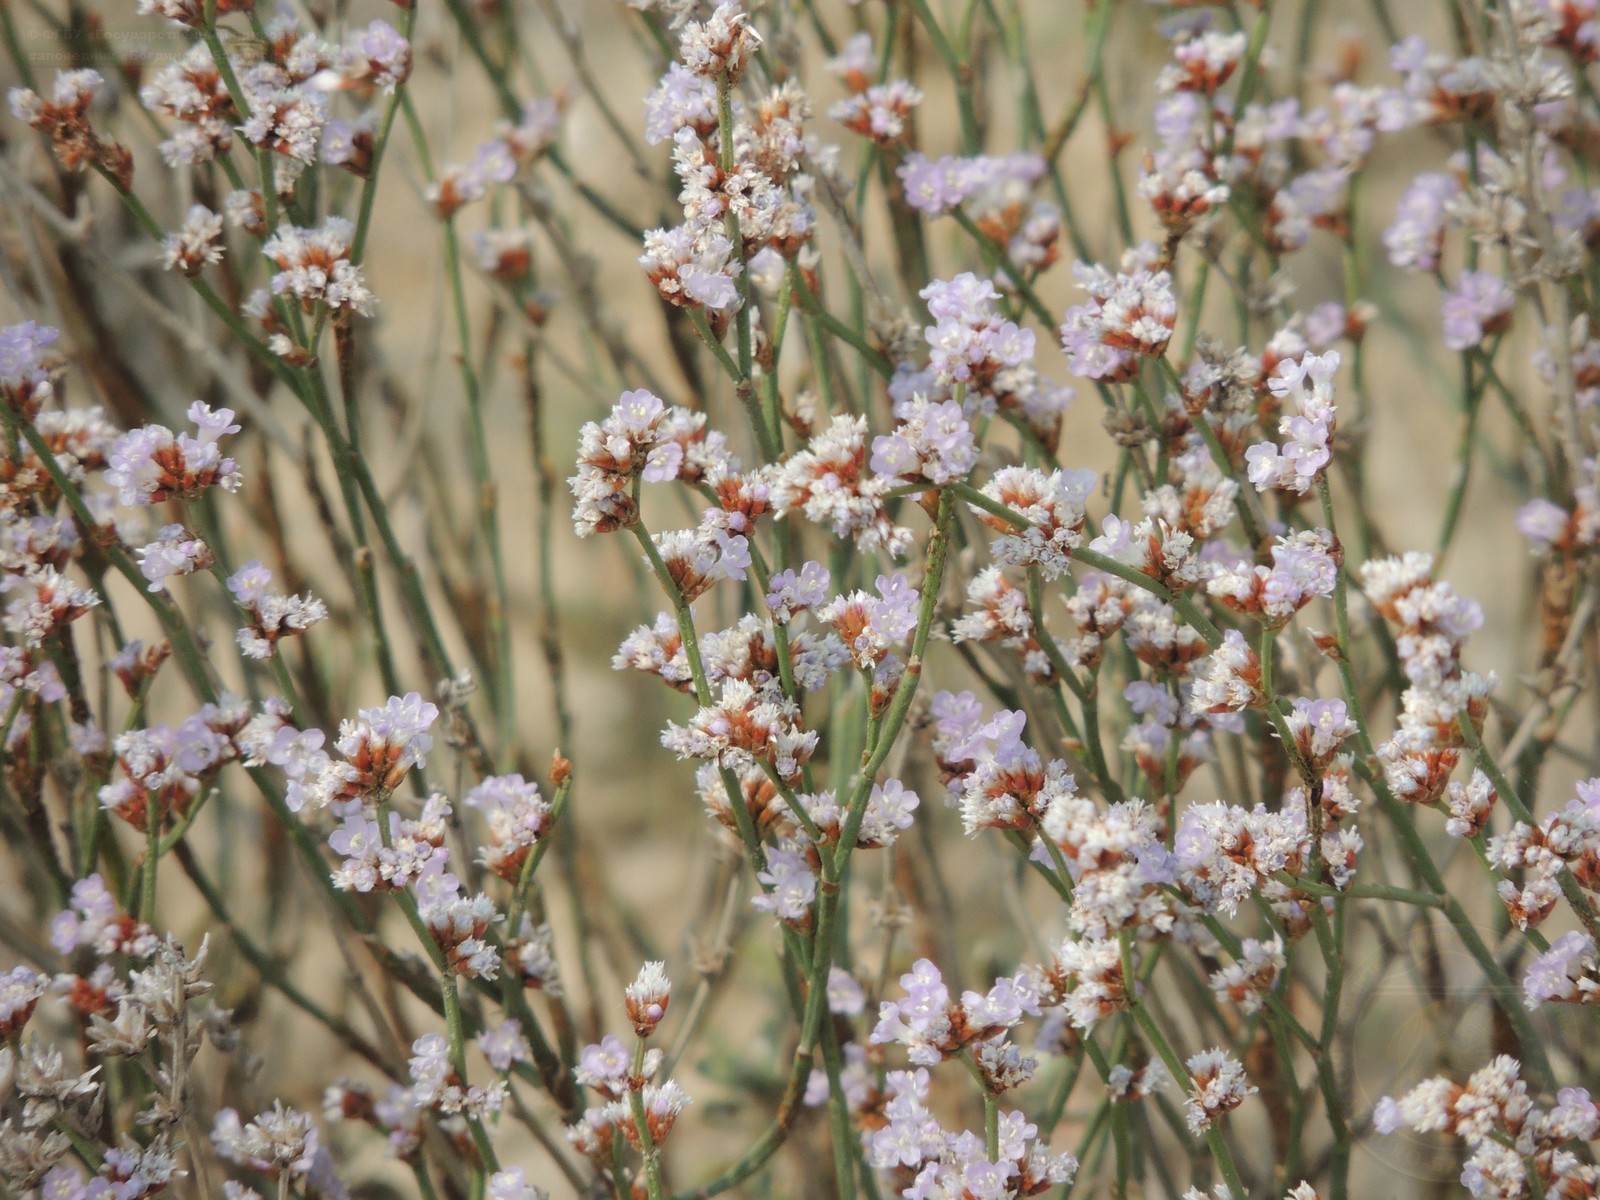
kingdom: Plantae
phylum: Tracheophyta
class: Magnoliopsida
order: Caryophyllales
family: Plumbaginaceae
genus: Limonium
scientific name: Limonium suffruticosum
